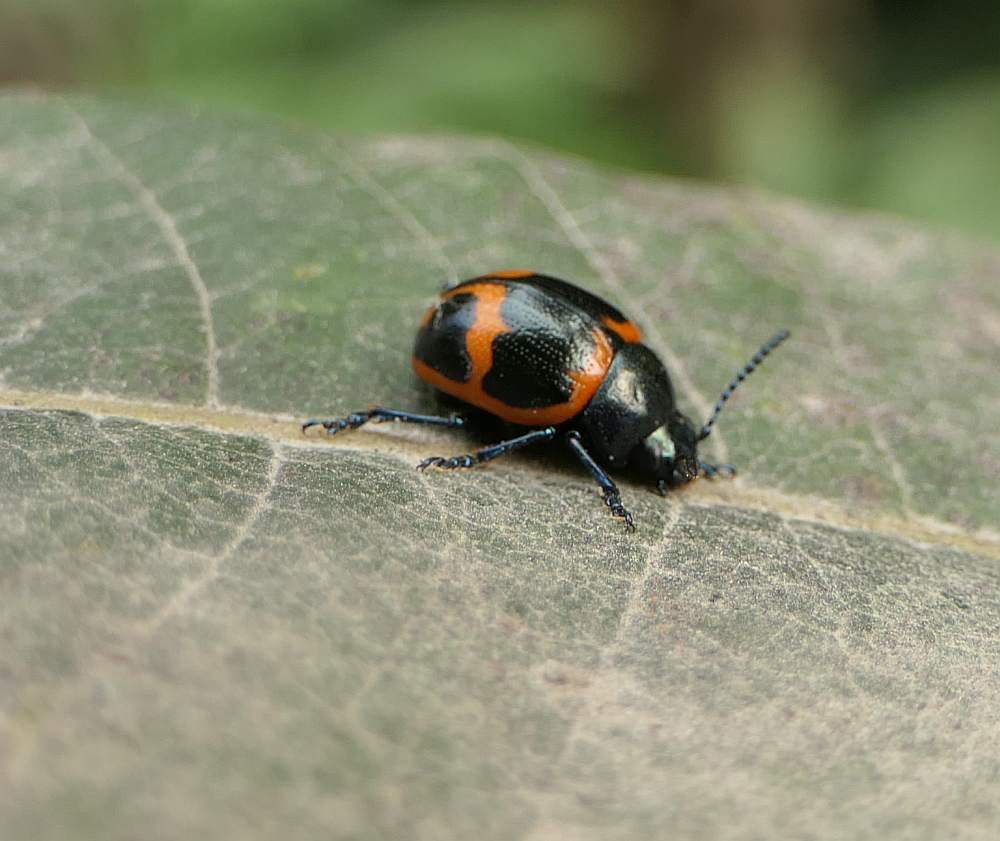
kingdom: Animalia
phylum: Arthropoda
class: Insecta
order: Coleoptera
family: Chrysomelidae
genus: Labidomera
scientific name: Labidomera clivicollis
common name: Swamp milkweed leaf beetle
